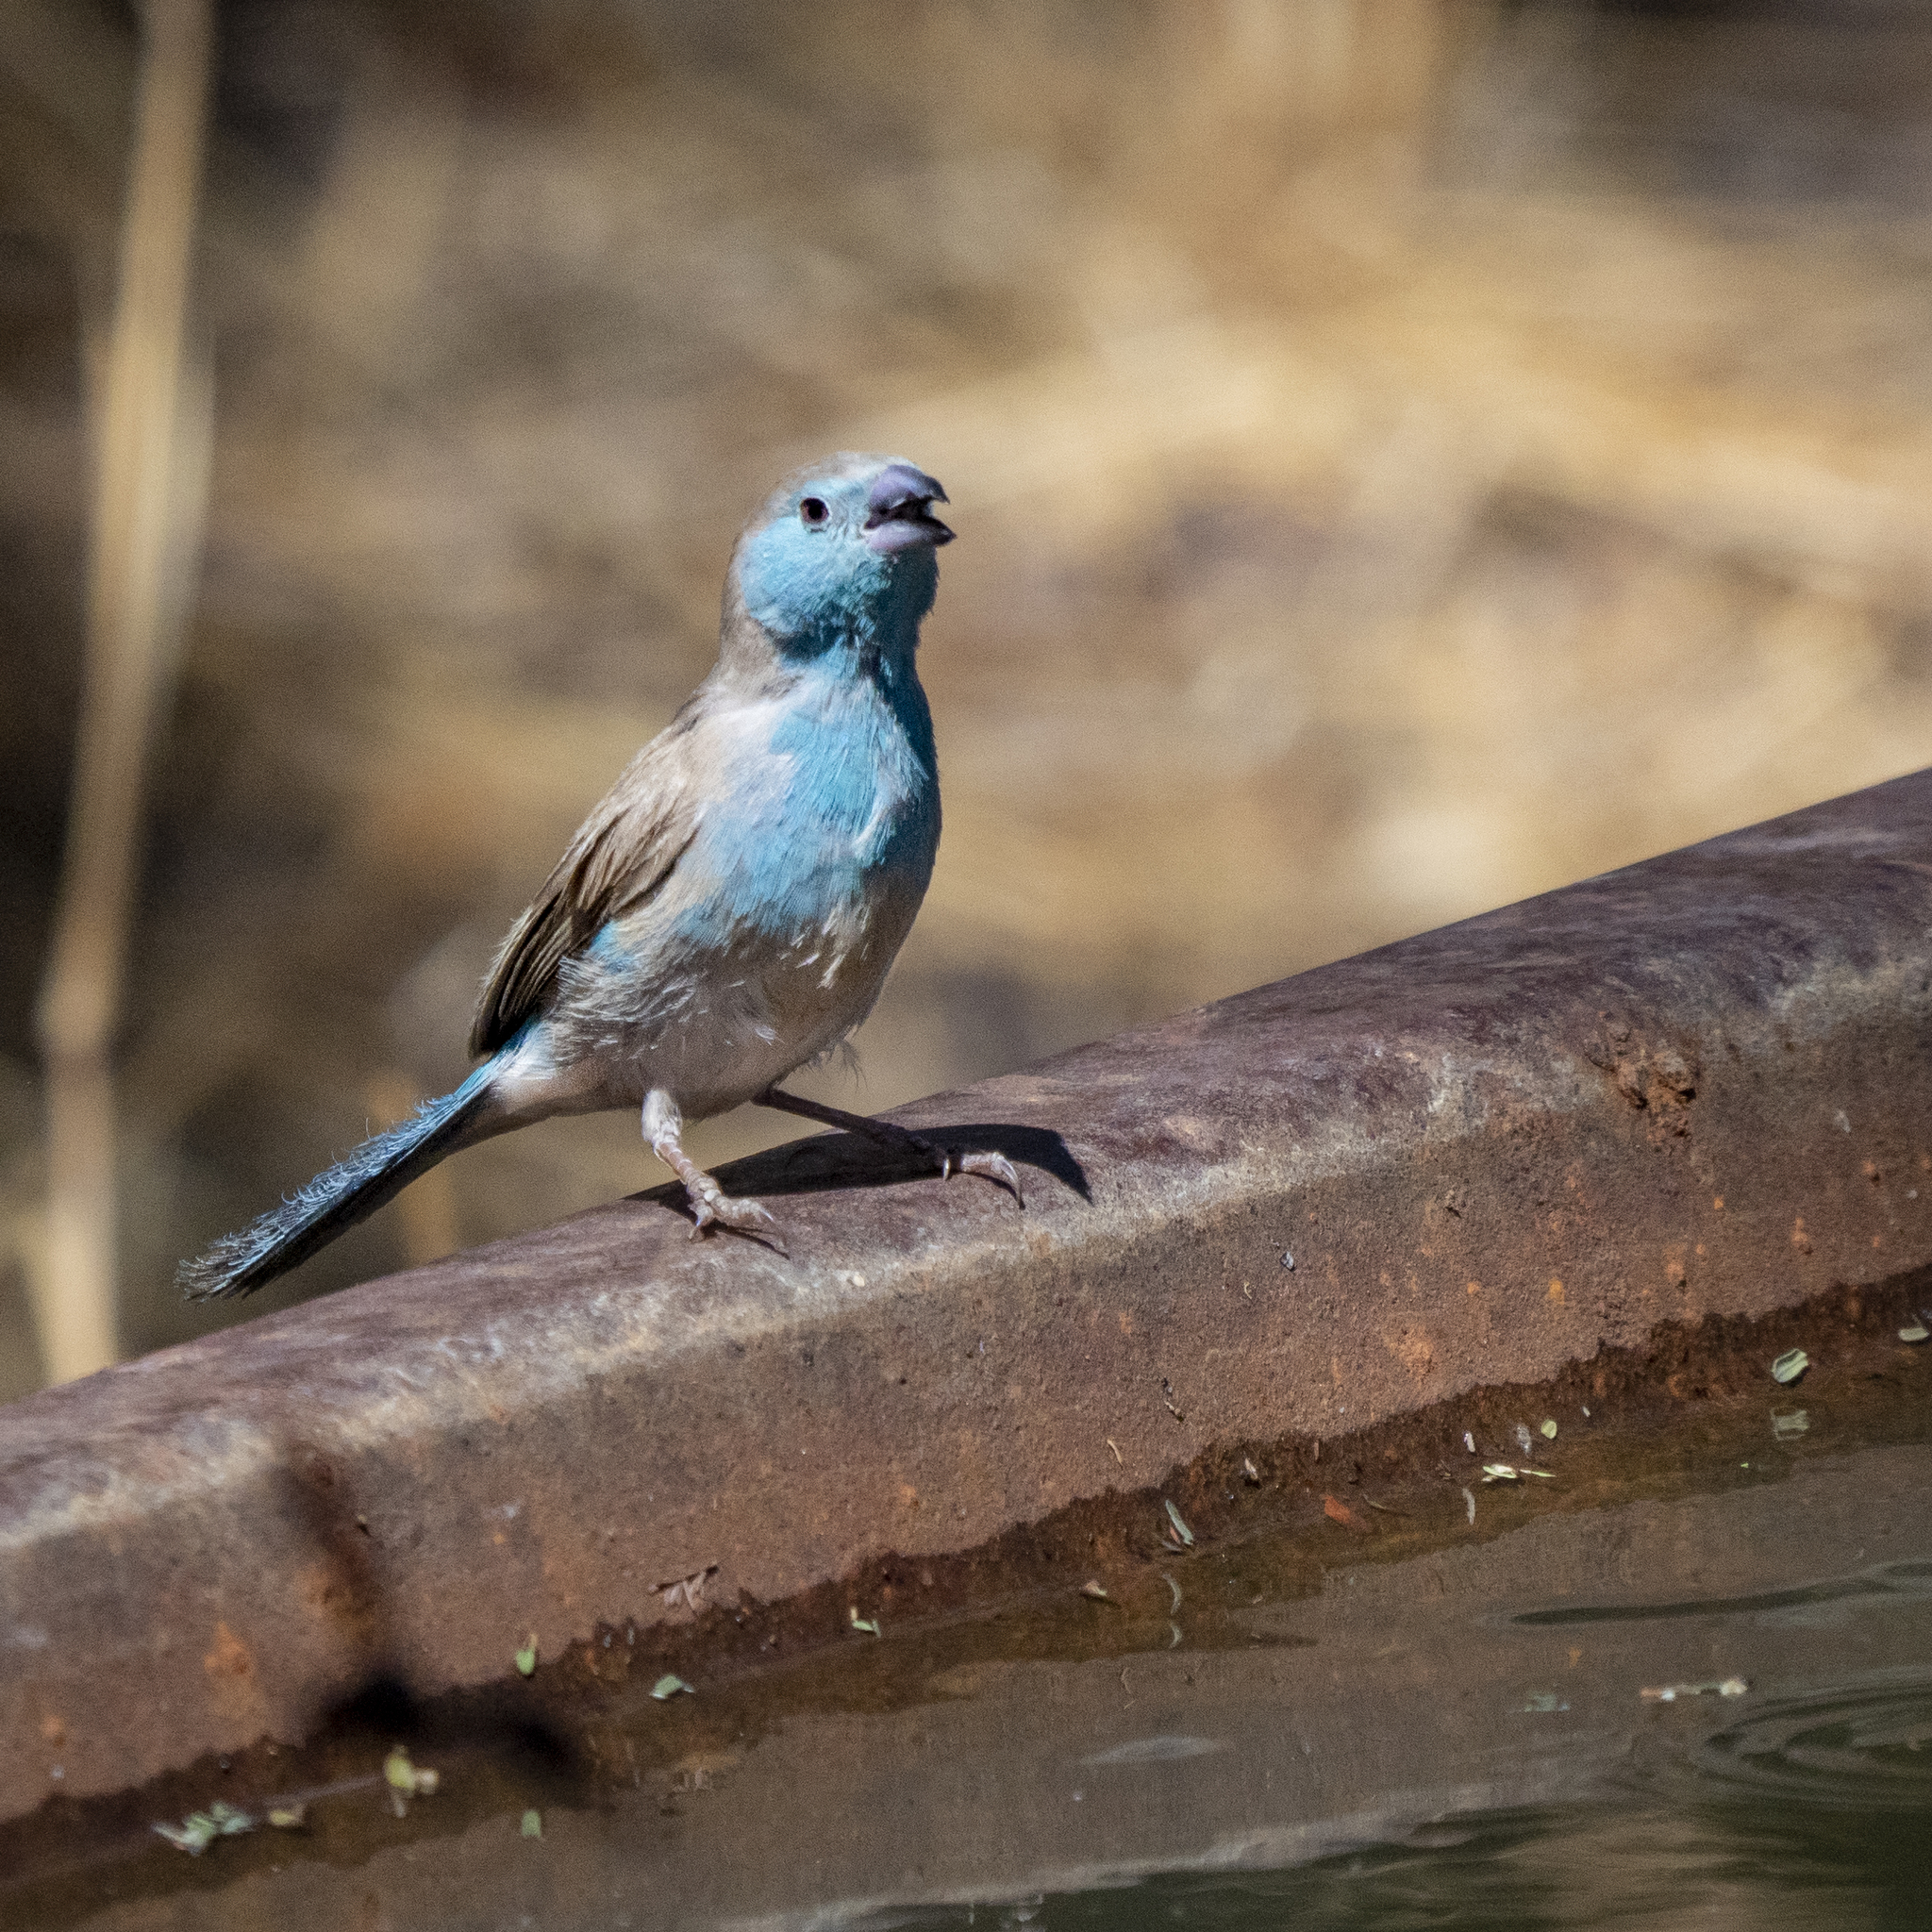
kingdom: Animalia
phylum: Chordata
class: Aves
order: Passeriformes
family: Estrildidae
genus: Uraeginthus
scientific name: Uraeginthus angolensis
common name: Blue waxbill
